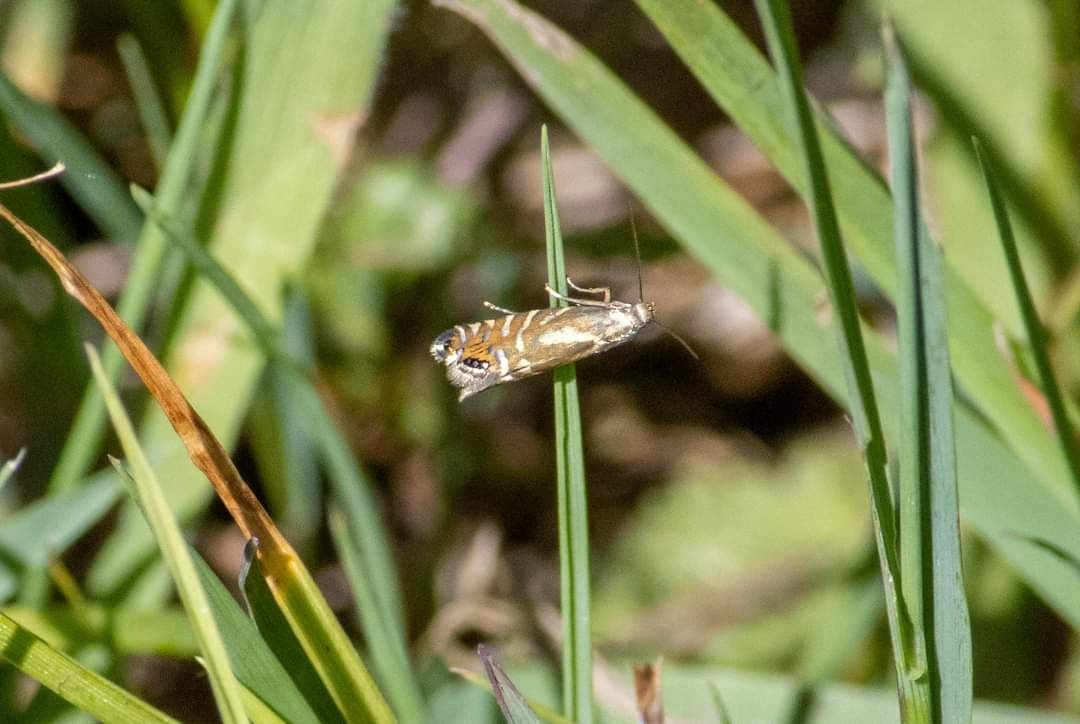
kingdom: Animalia
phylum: Arthropoda
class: Insecta
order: Lepidoptera
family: Glyphipterigidae
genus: Glyphipterix
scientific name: Glyphipterix thrasonella
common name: Speckled fanner
